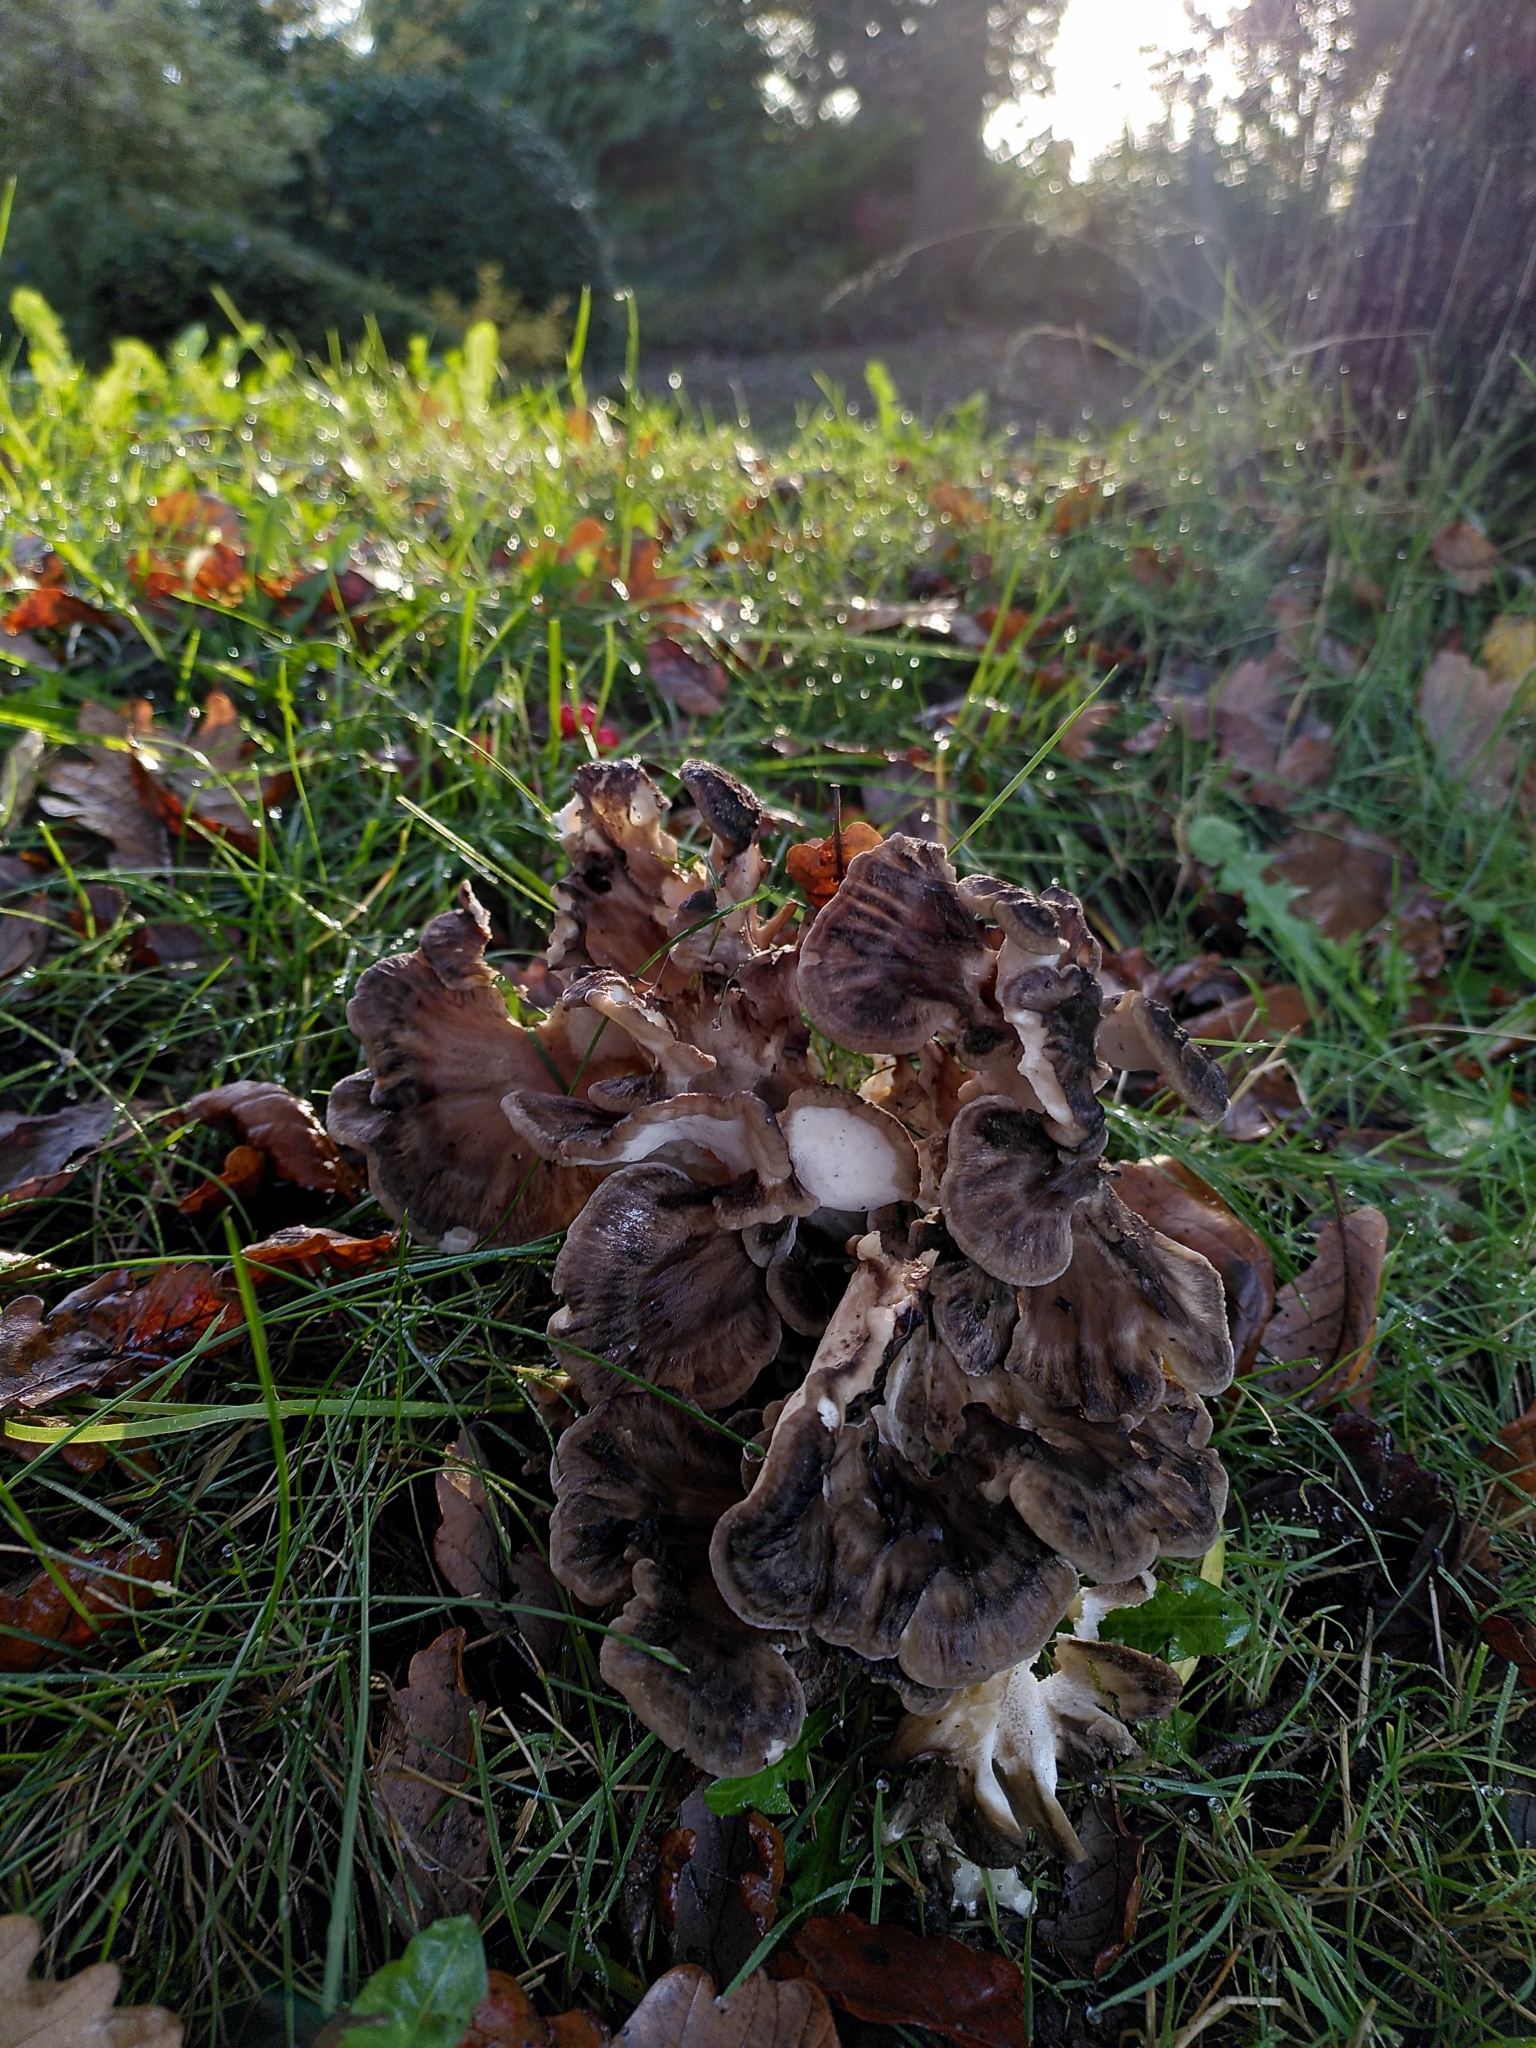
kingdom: Fungi
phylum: Basidiomycota
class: Agaricomycetes
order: Polyporales
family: Grifolaceae
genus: Grifola
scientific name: Grifola frondosa
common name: Hen of the woods
